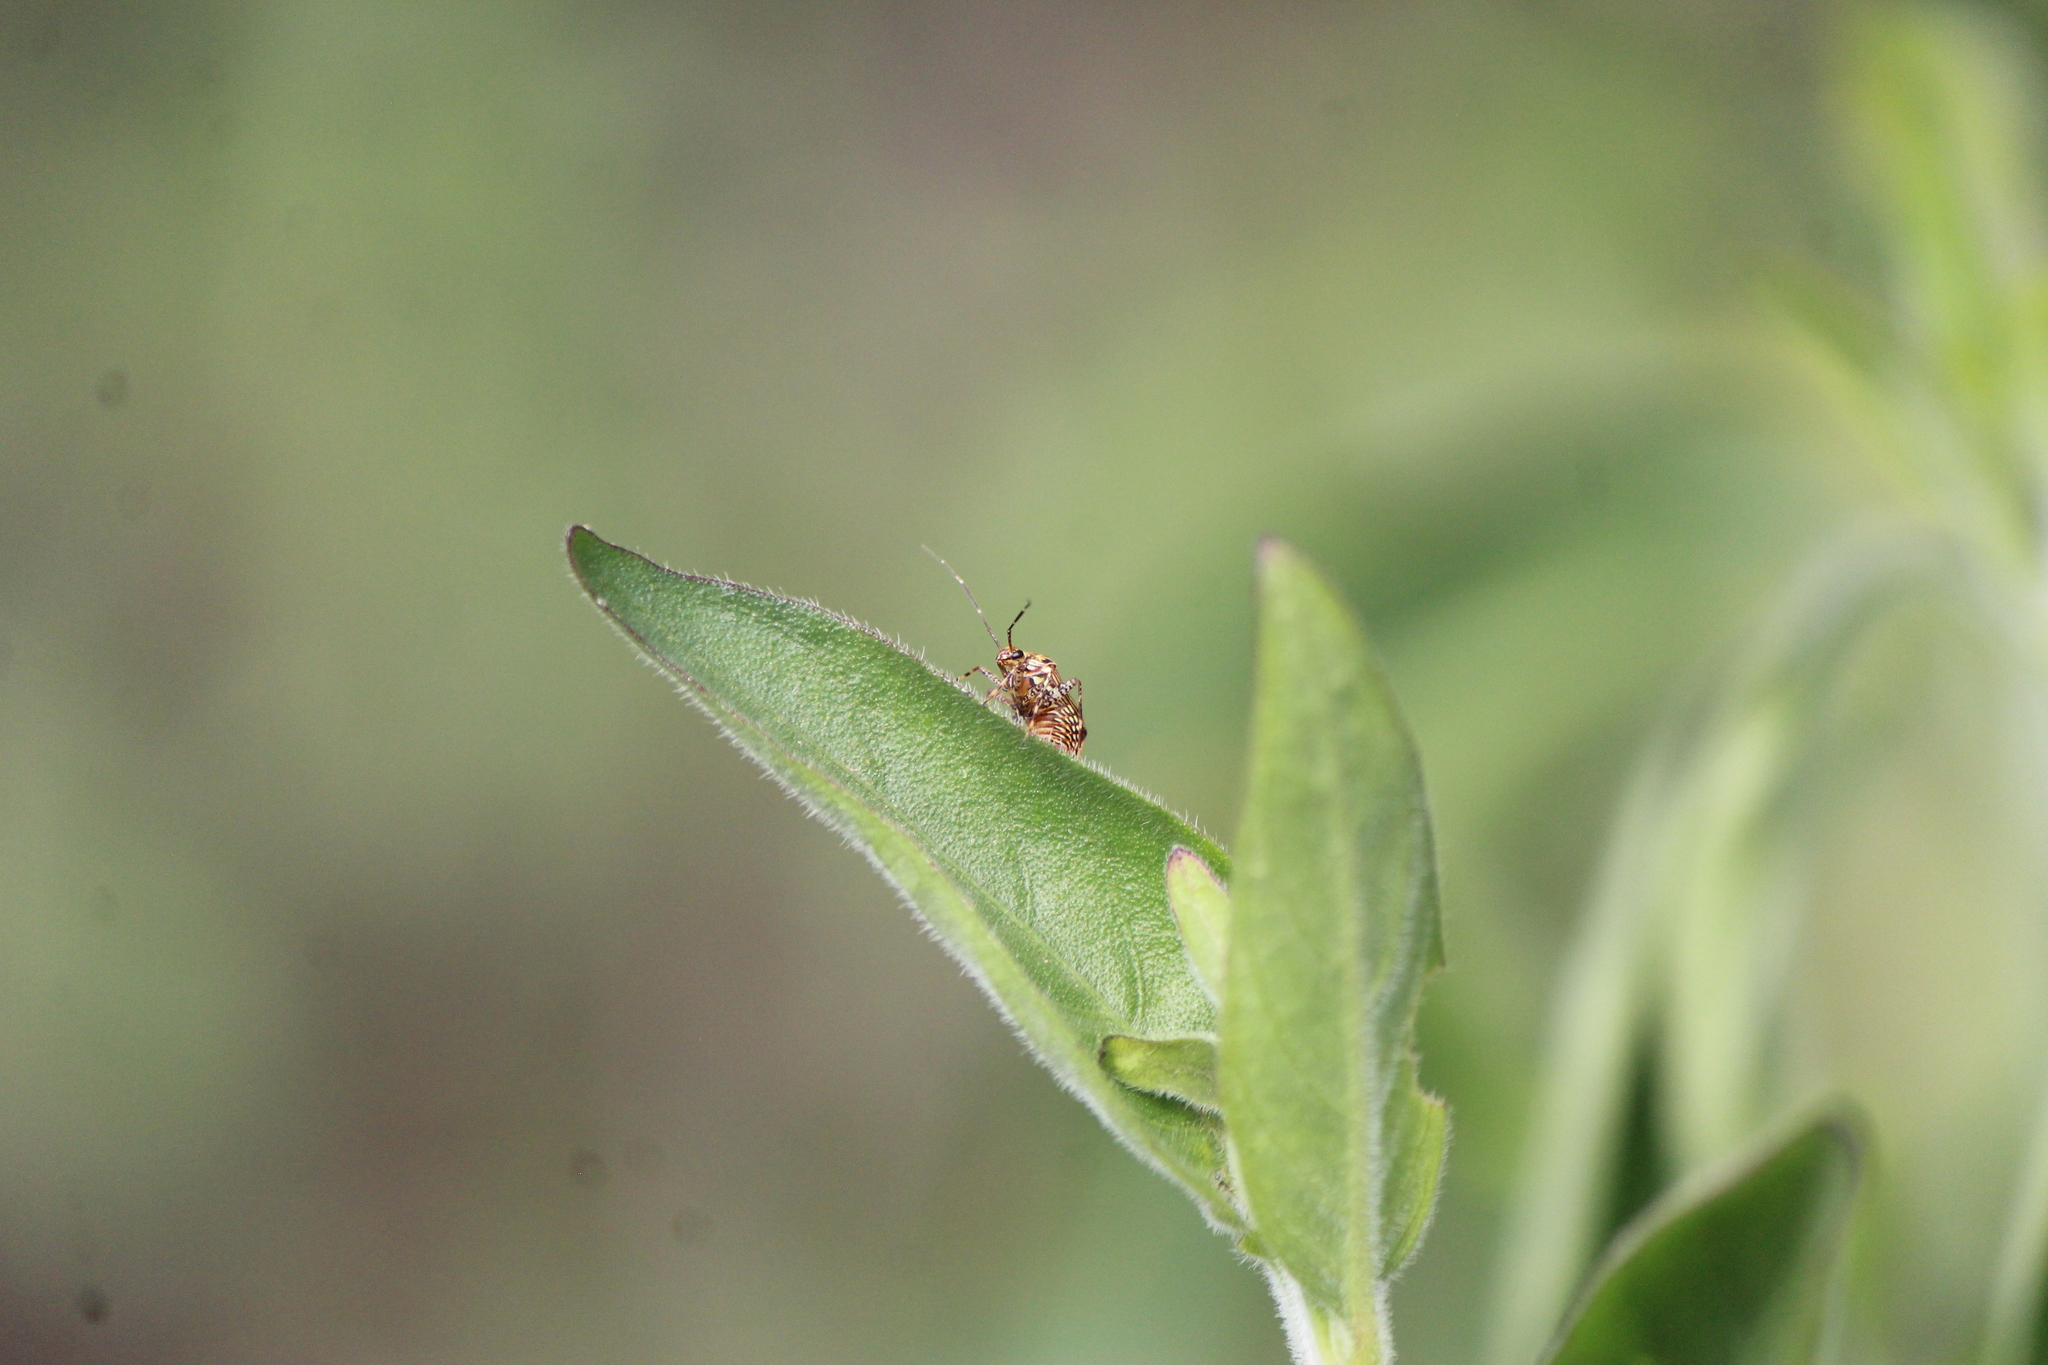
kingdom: Animalia
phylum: Arthropoda
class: Insecta
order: Hemiptera
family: Miridae
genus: Taedia
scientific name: Taedia fasciola
